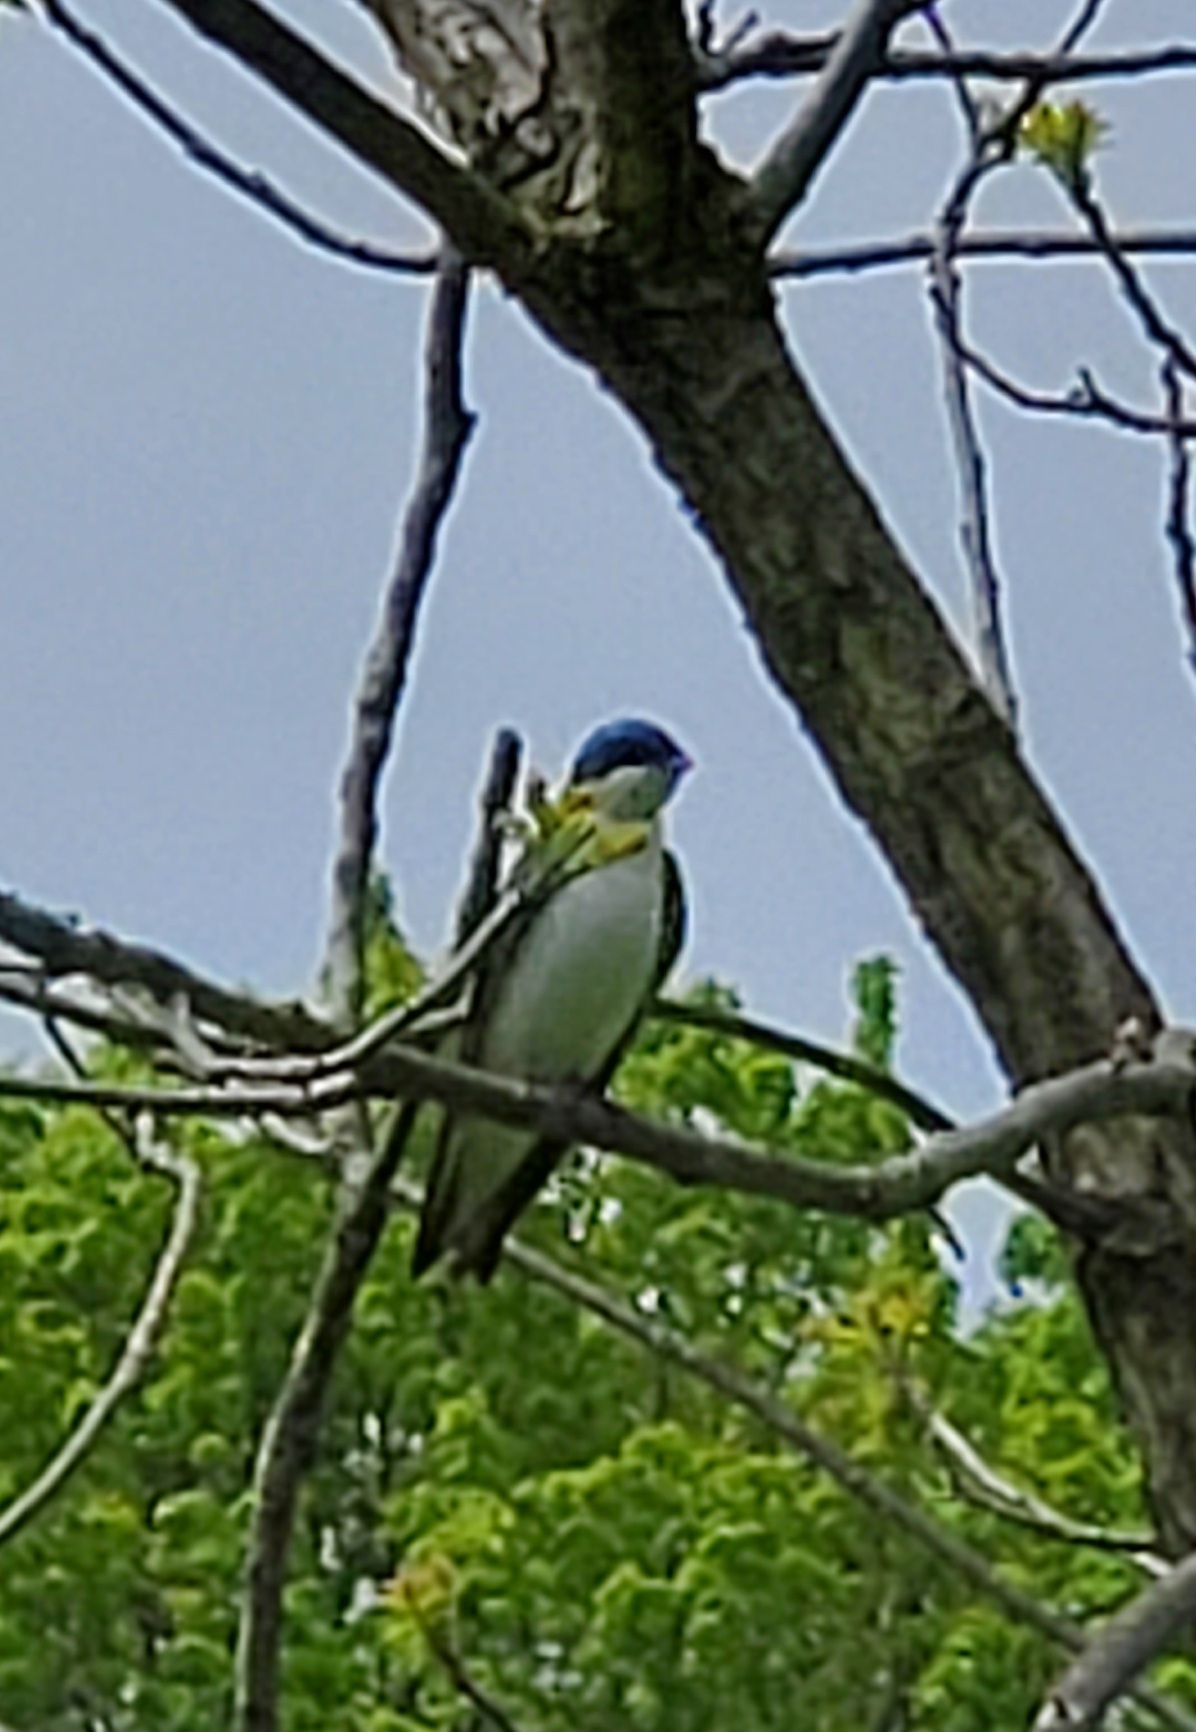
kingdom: Animalia
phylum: Chordata
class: Aves
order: Passeriformes
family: Hirundinidae
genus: Tachycineta
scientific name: Tachycineta bicolor
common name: Tree swallow
